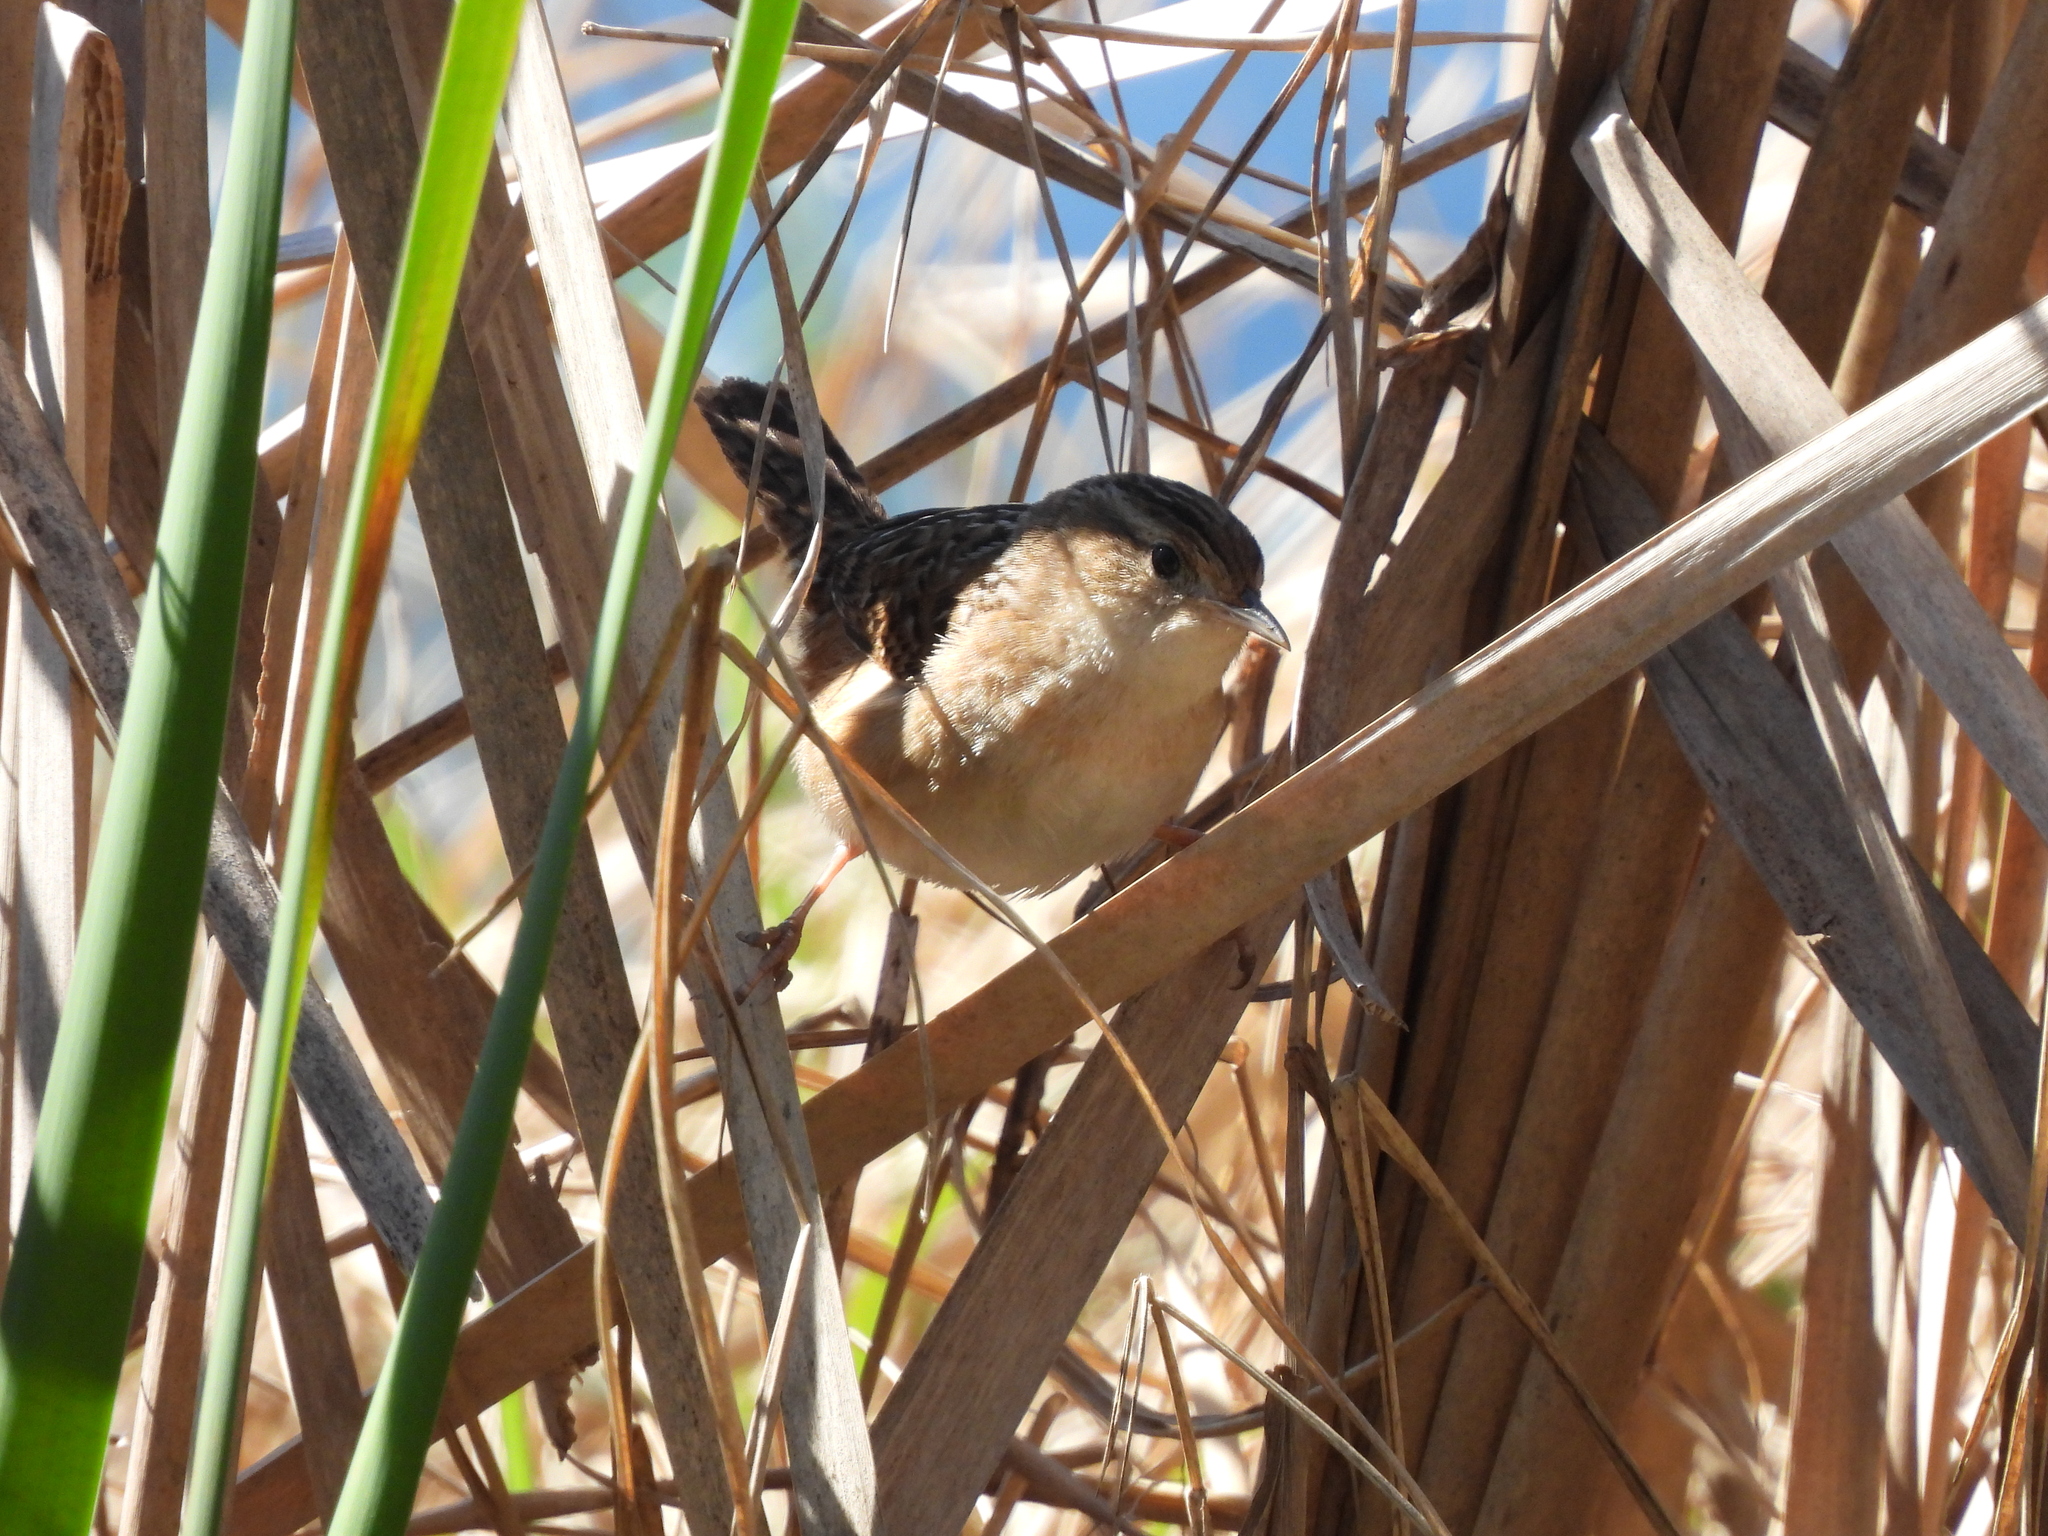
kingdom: Animalia
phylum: Chordata
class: Aves
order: Passeriformes
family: Troglodytidae
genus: Cistothorus
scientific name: Cistothorus platensis
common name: Sedge wren
